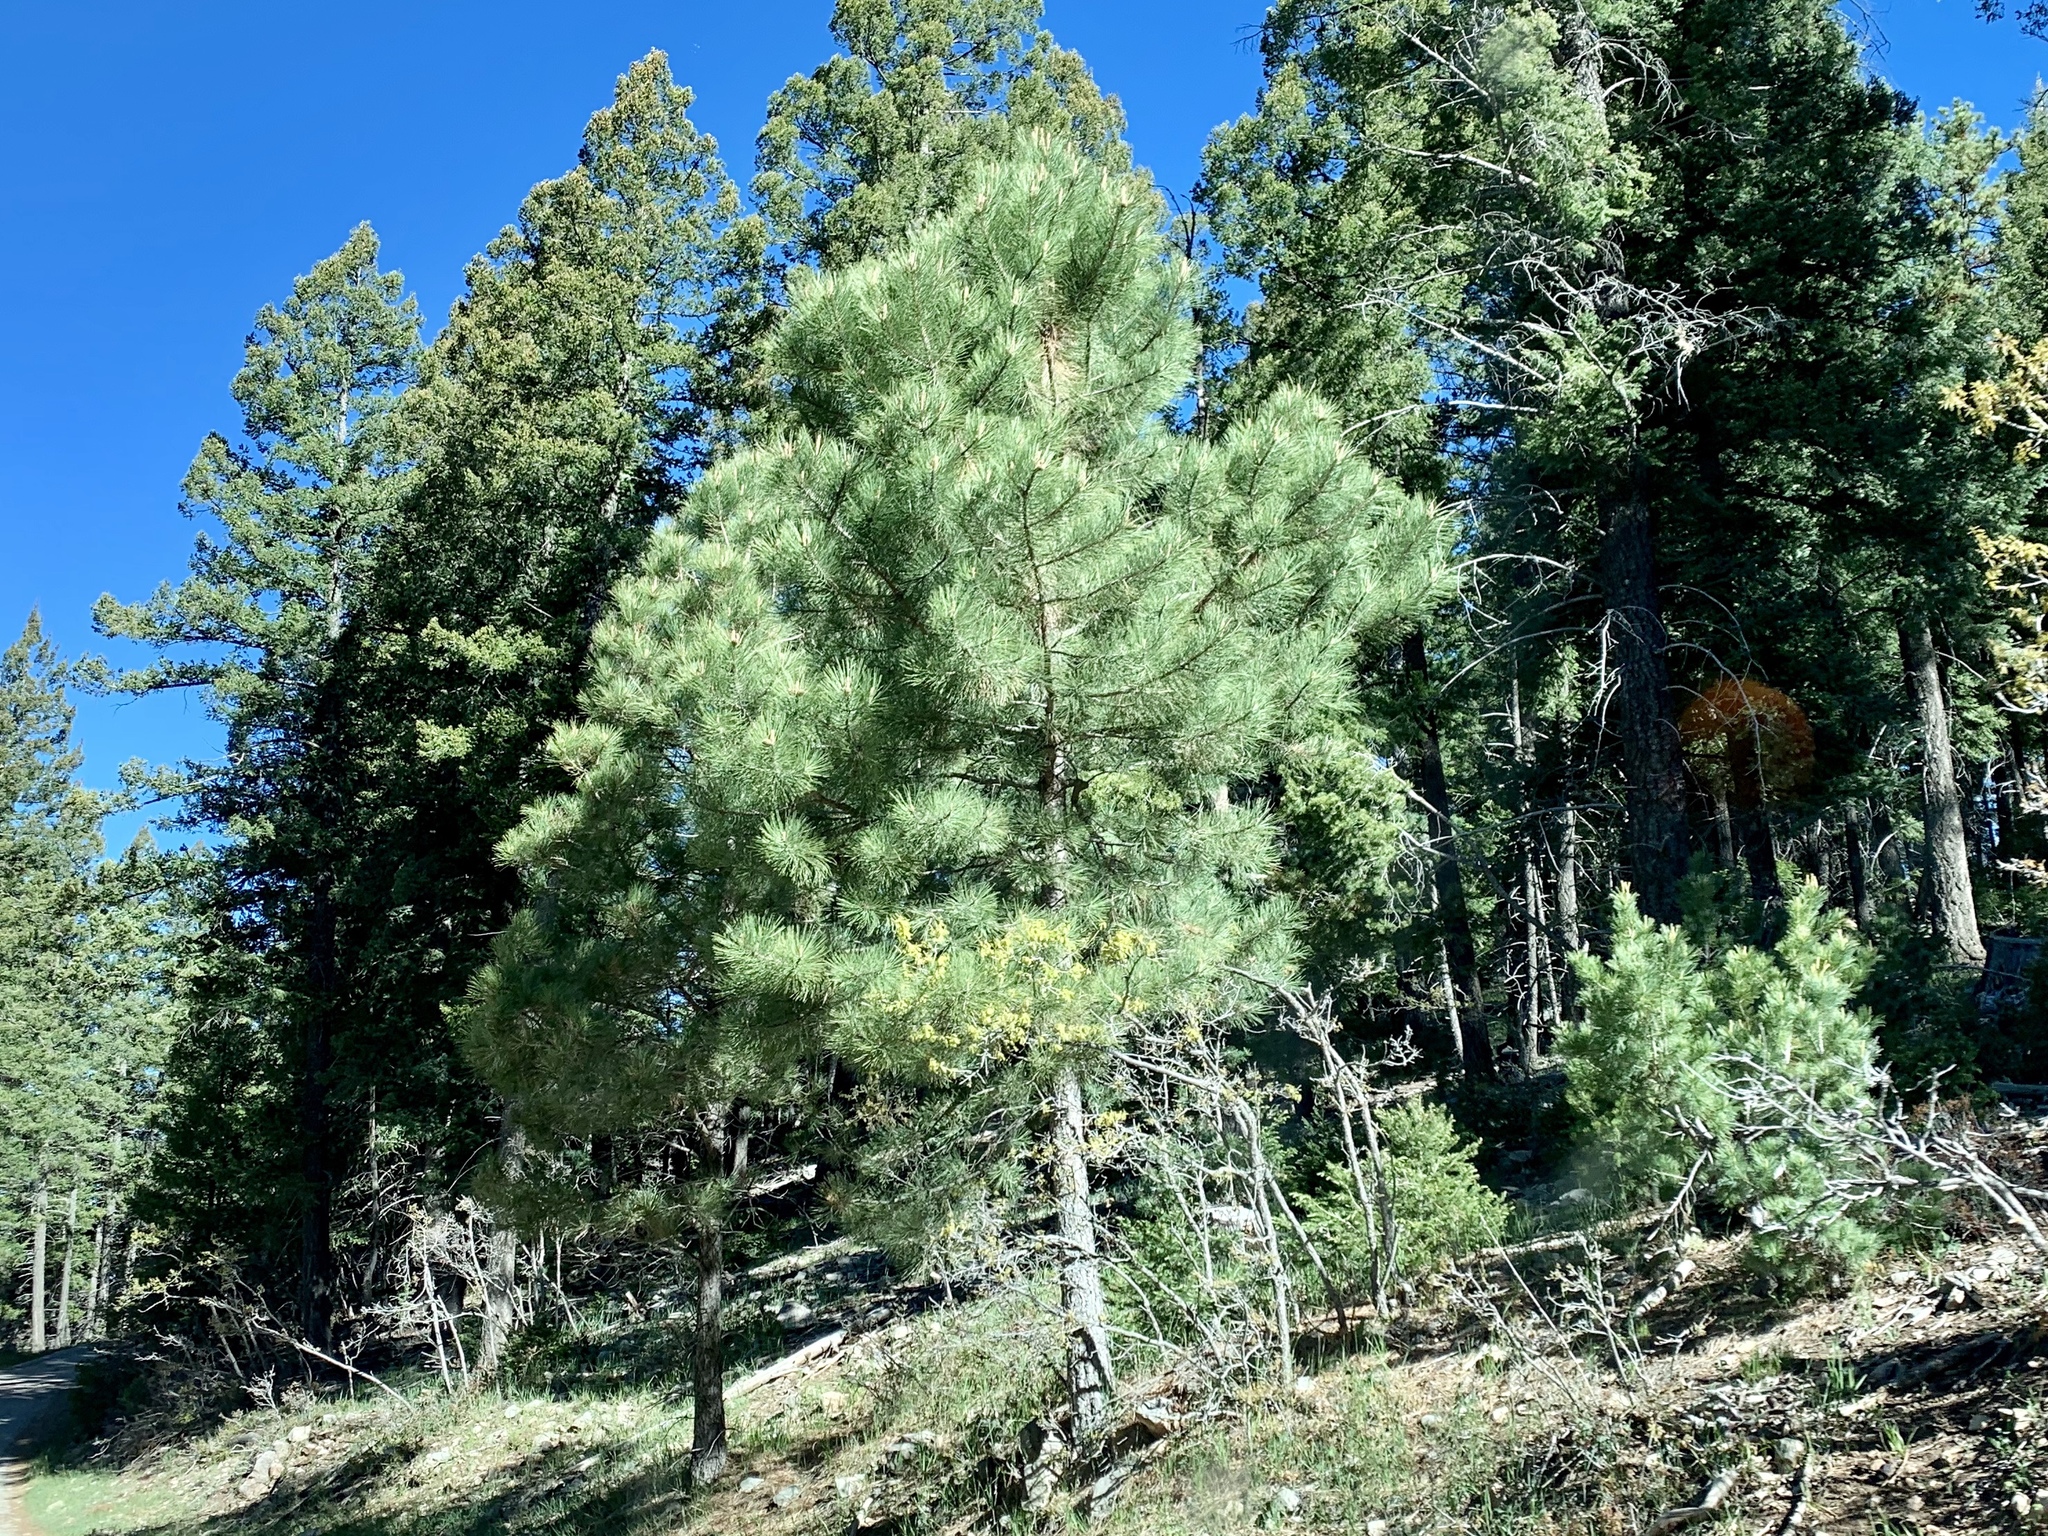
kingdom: Plantae
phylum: Tracheophyta
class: Pinopsida
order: Pinales
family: Pinaceae
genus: Pinus
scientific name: Pinus ponderosa
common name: Western yellow-pine
